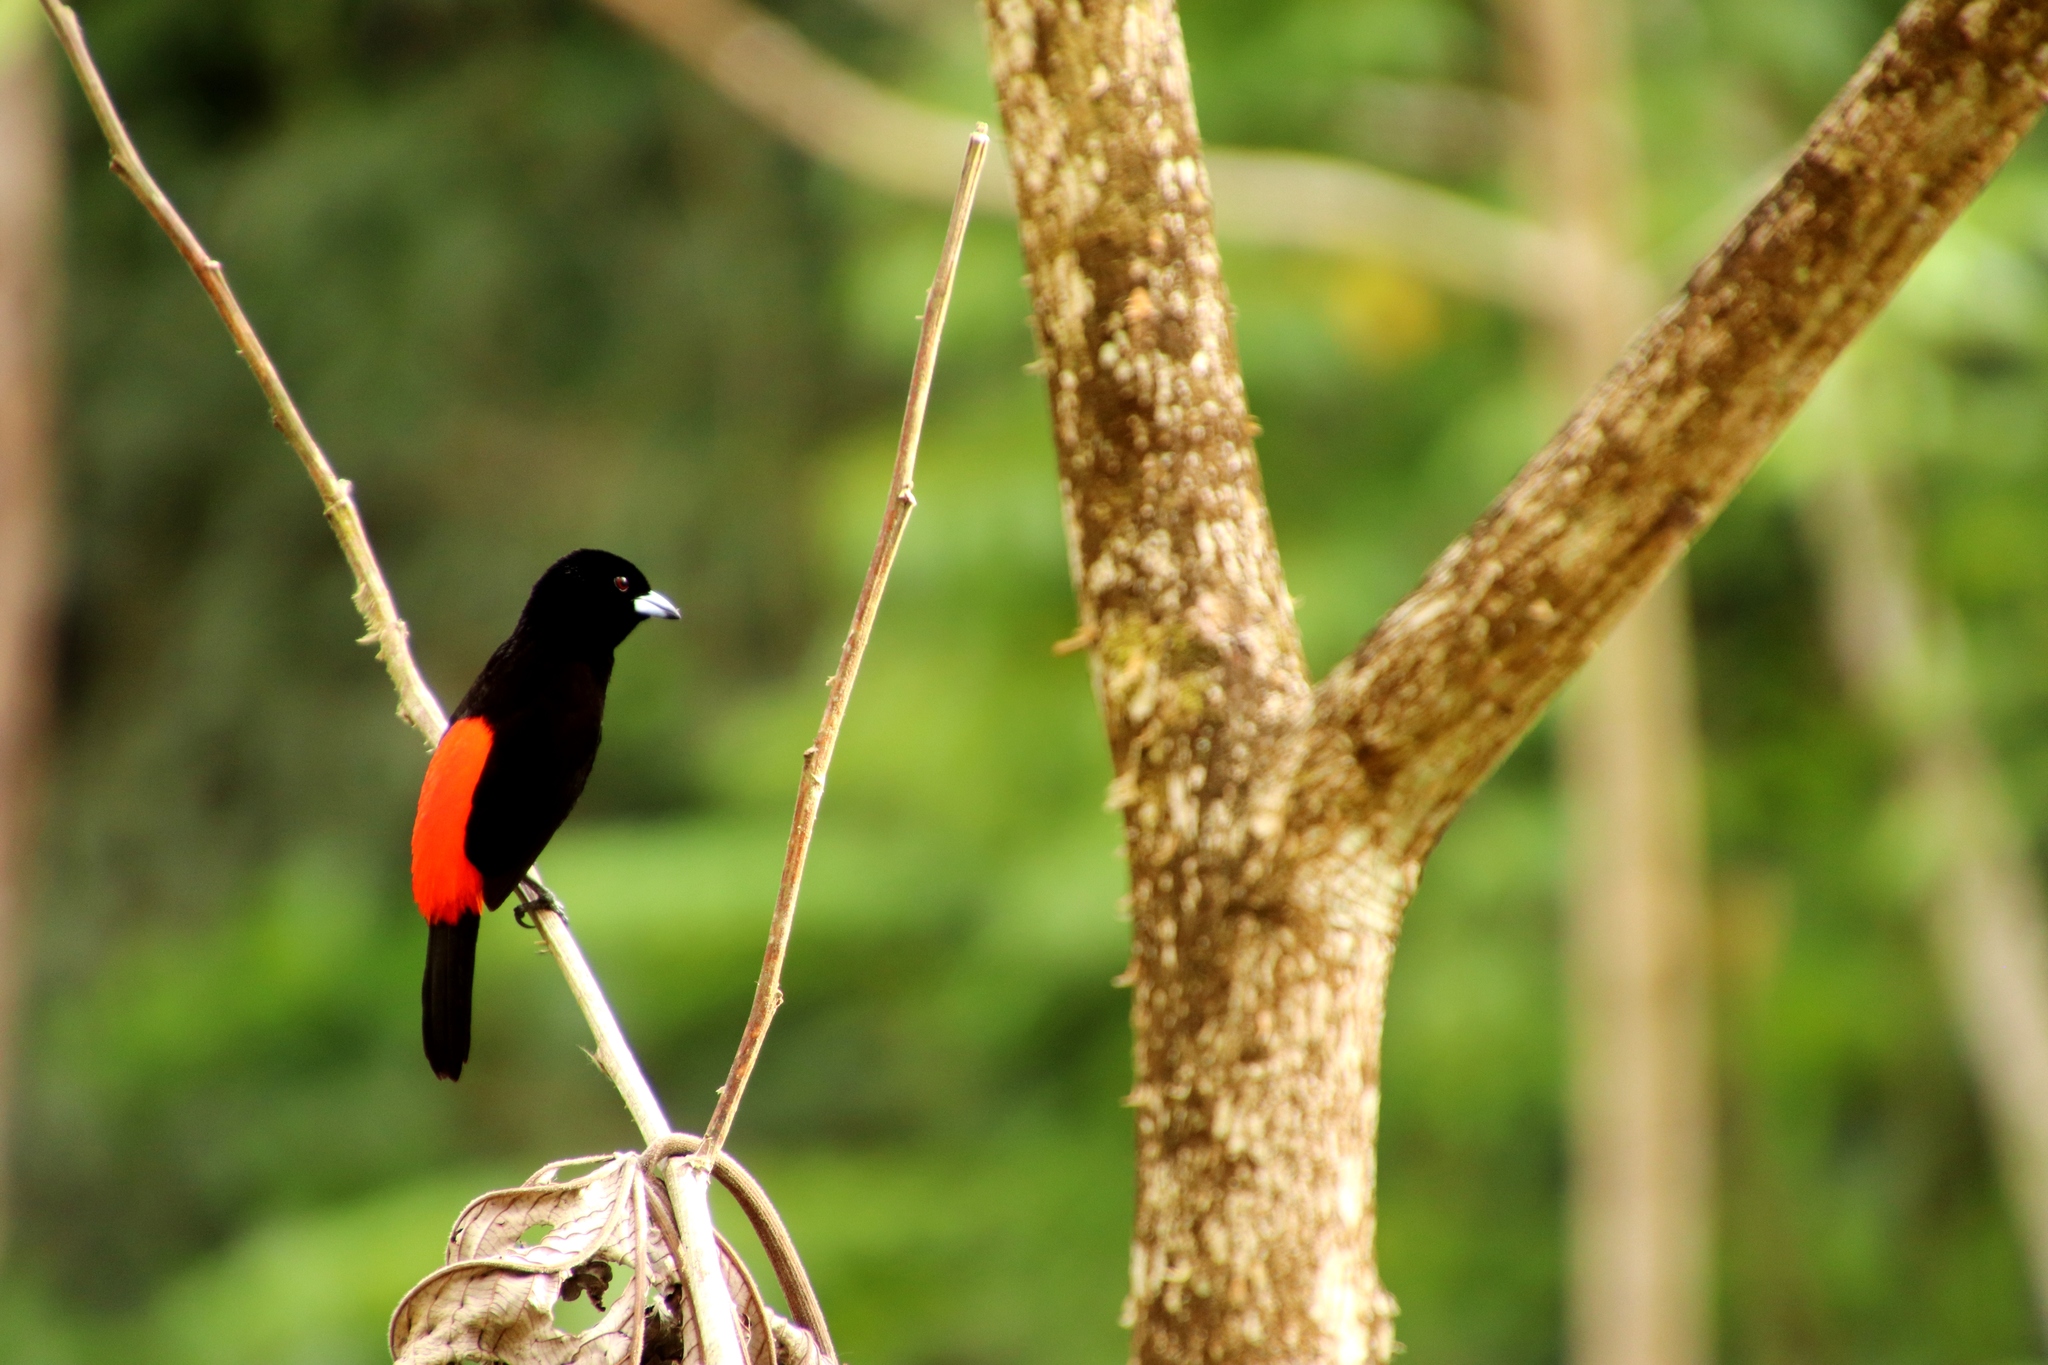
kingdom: Animalia
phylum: Chordata
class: Aves
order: Passeriformes
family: Thraupidae
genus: Ramphocelus
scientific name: Ramphocelus passerinii
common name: Passerini's tanager
